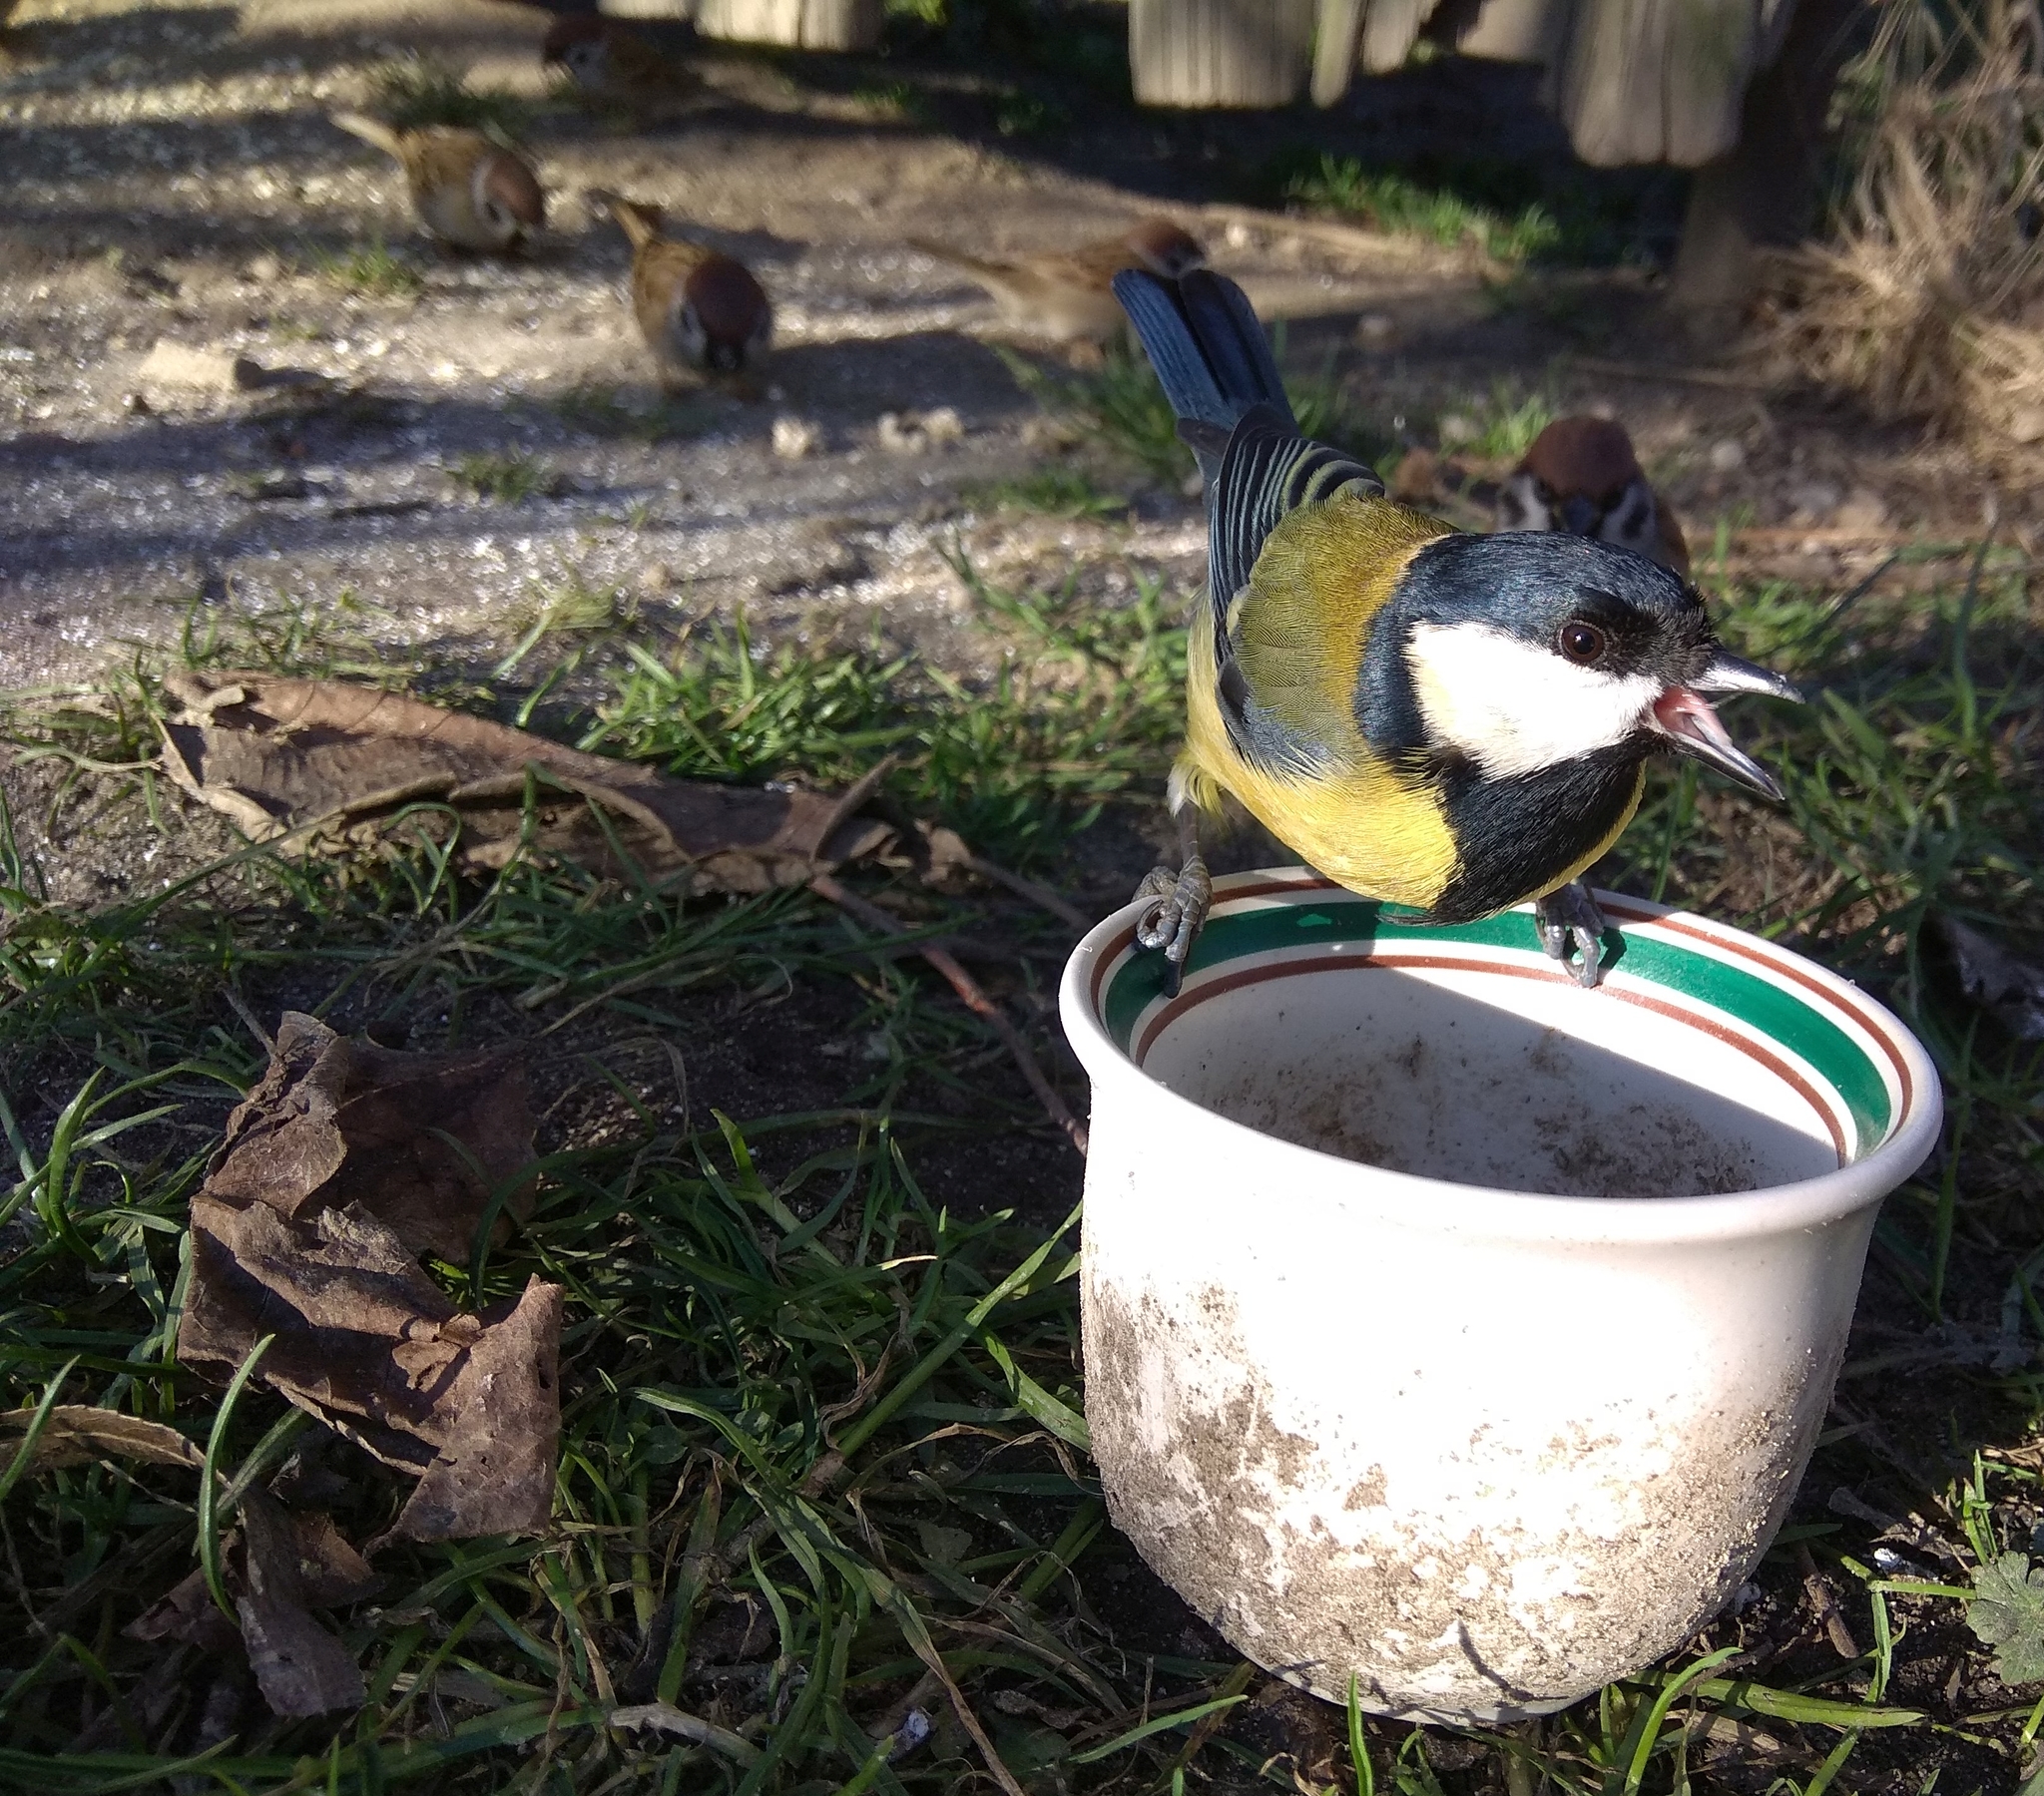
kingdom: Animalia
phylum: Chordata
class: Aves
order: Passeriformes
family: Paridae
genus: Parus
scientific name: Parus major
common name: Great tit
